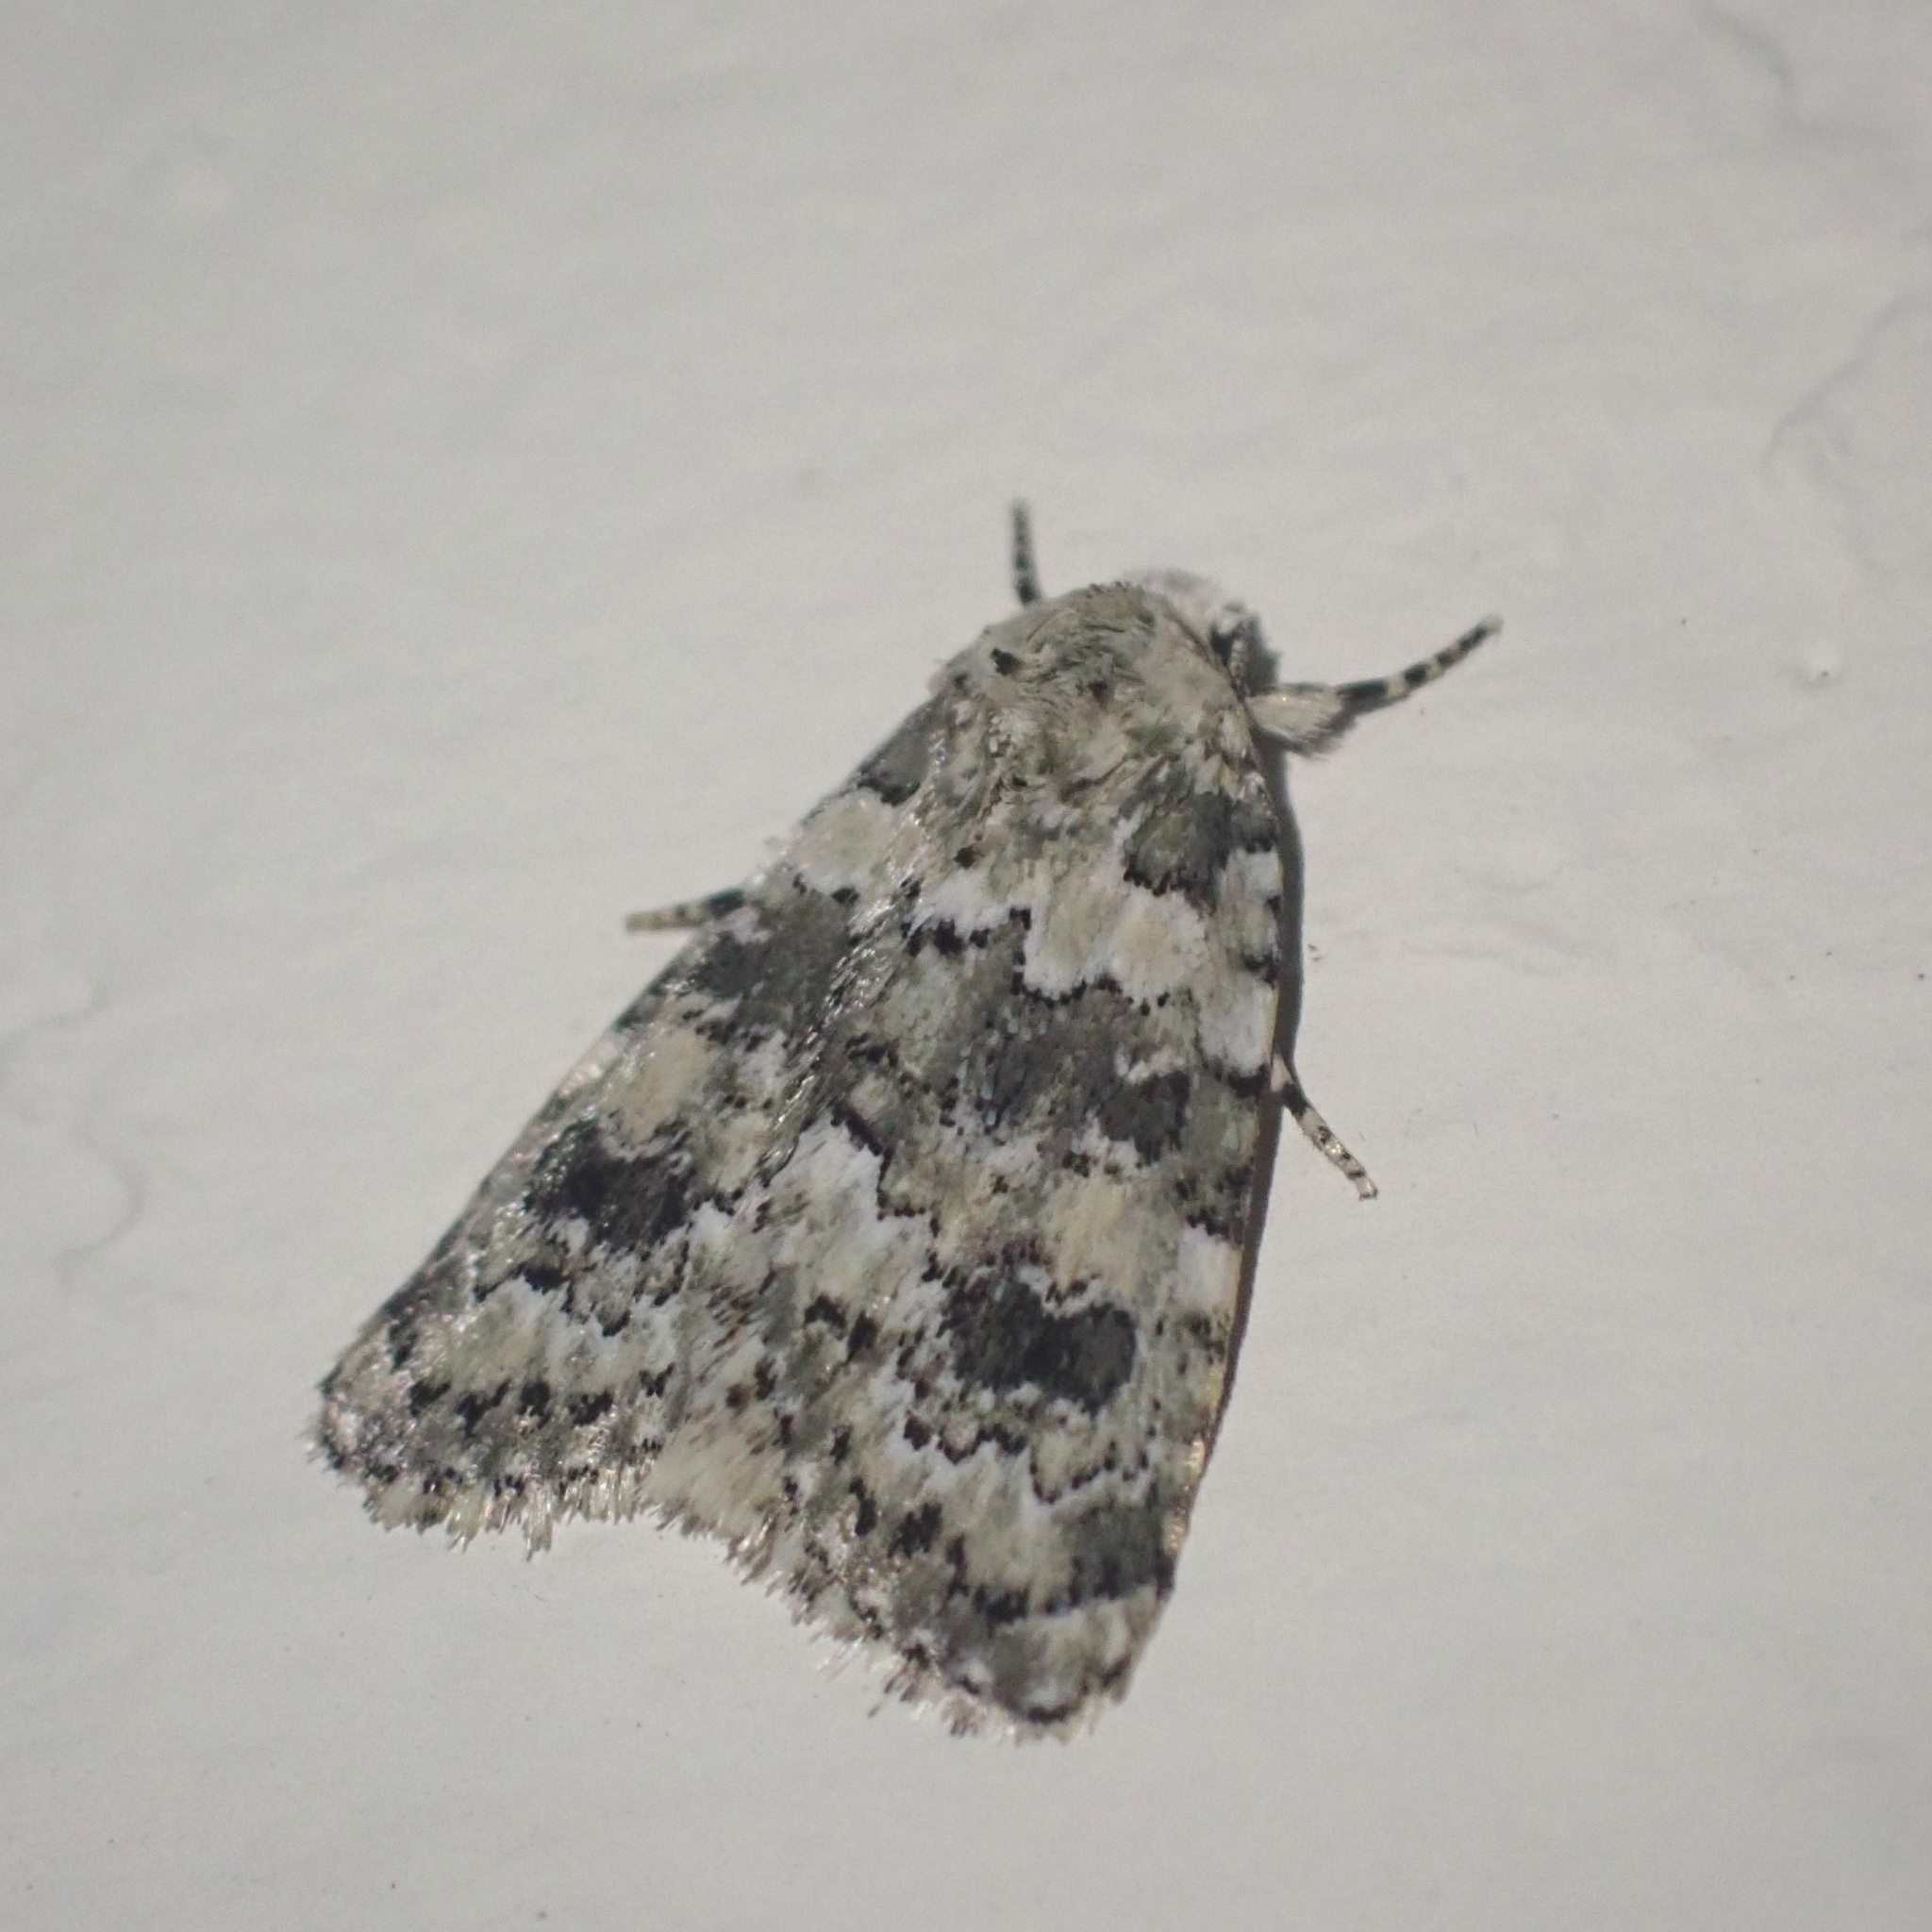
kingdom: Animalia
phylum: Arthropoda
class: Insecta
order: Lepidoptera
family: Noctuidae
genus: Bryophila
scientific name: Bryophila domestica
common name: Marbled beauty
